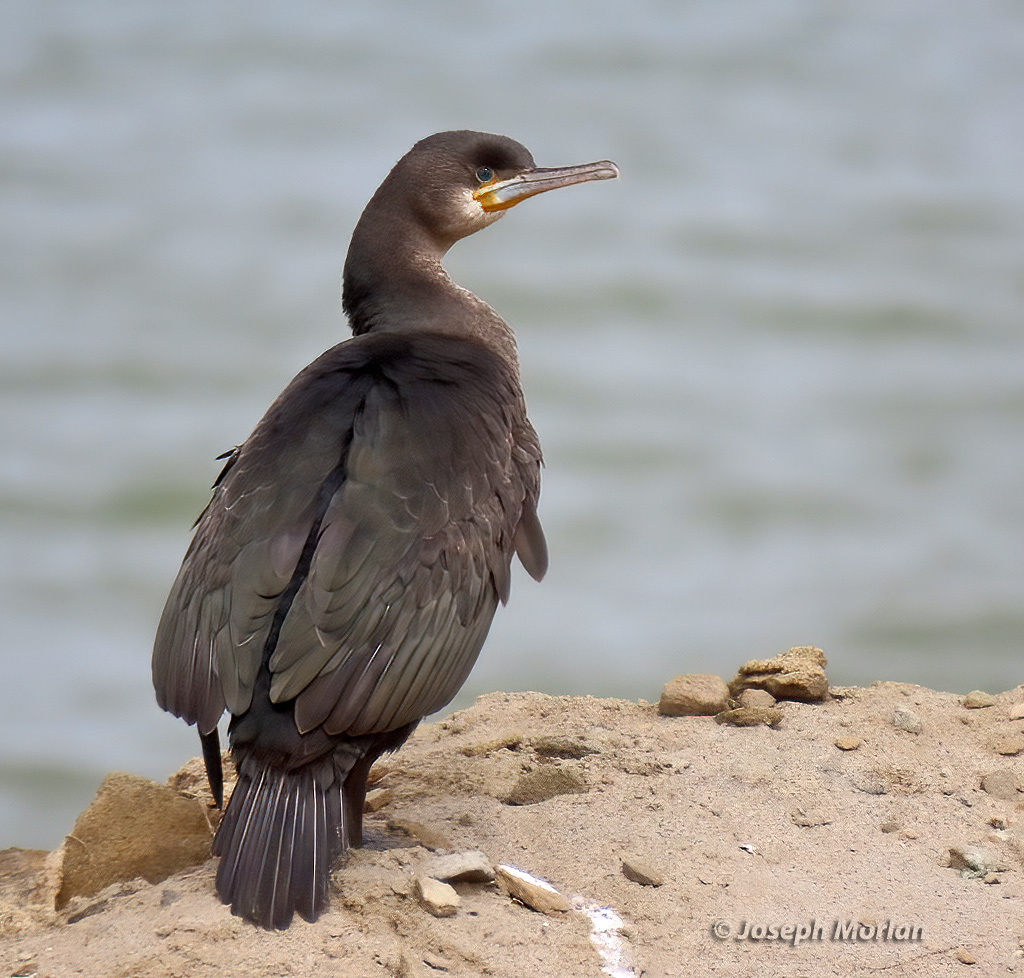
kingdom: Animalia
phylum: Chordata
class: Aves
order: Suliformes
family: Phalacrocoracidae
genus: Phalacrocorax
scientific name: Phalacrocorax capensis
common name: Cape cormorant
